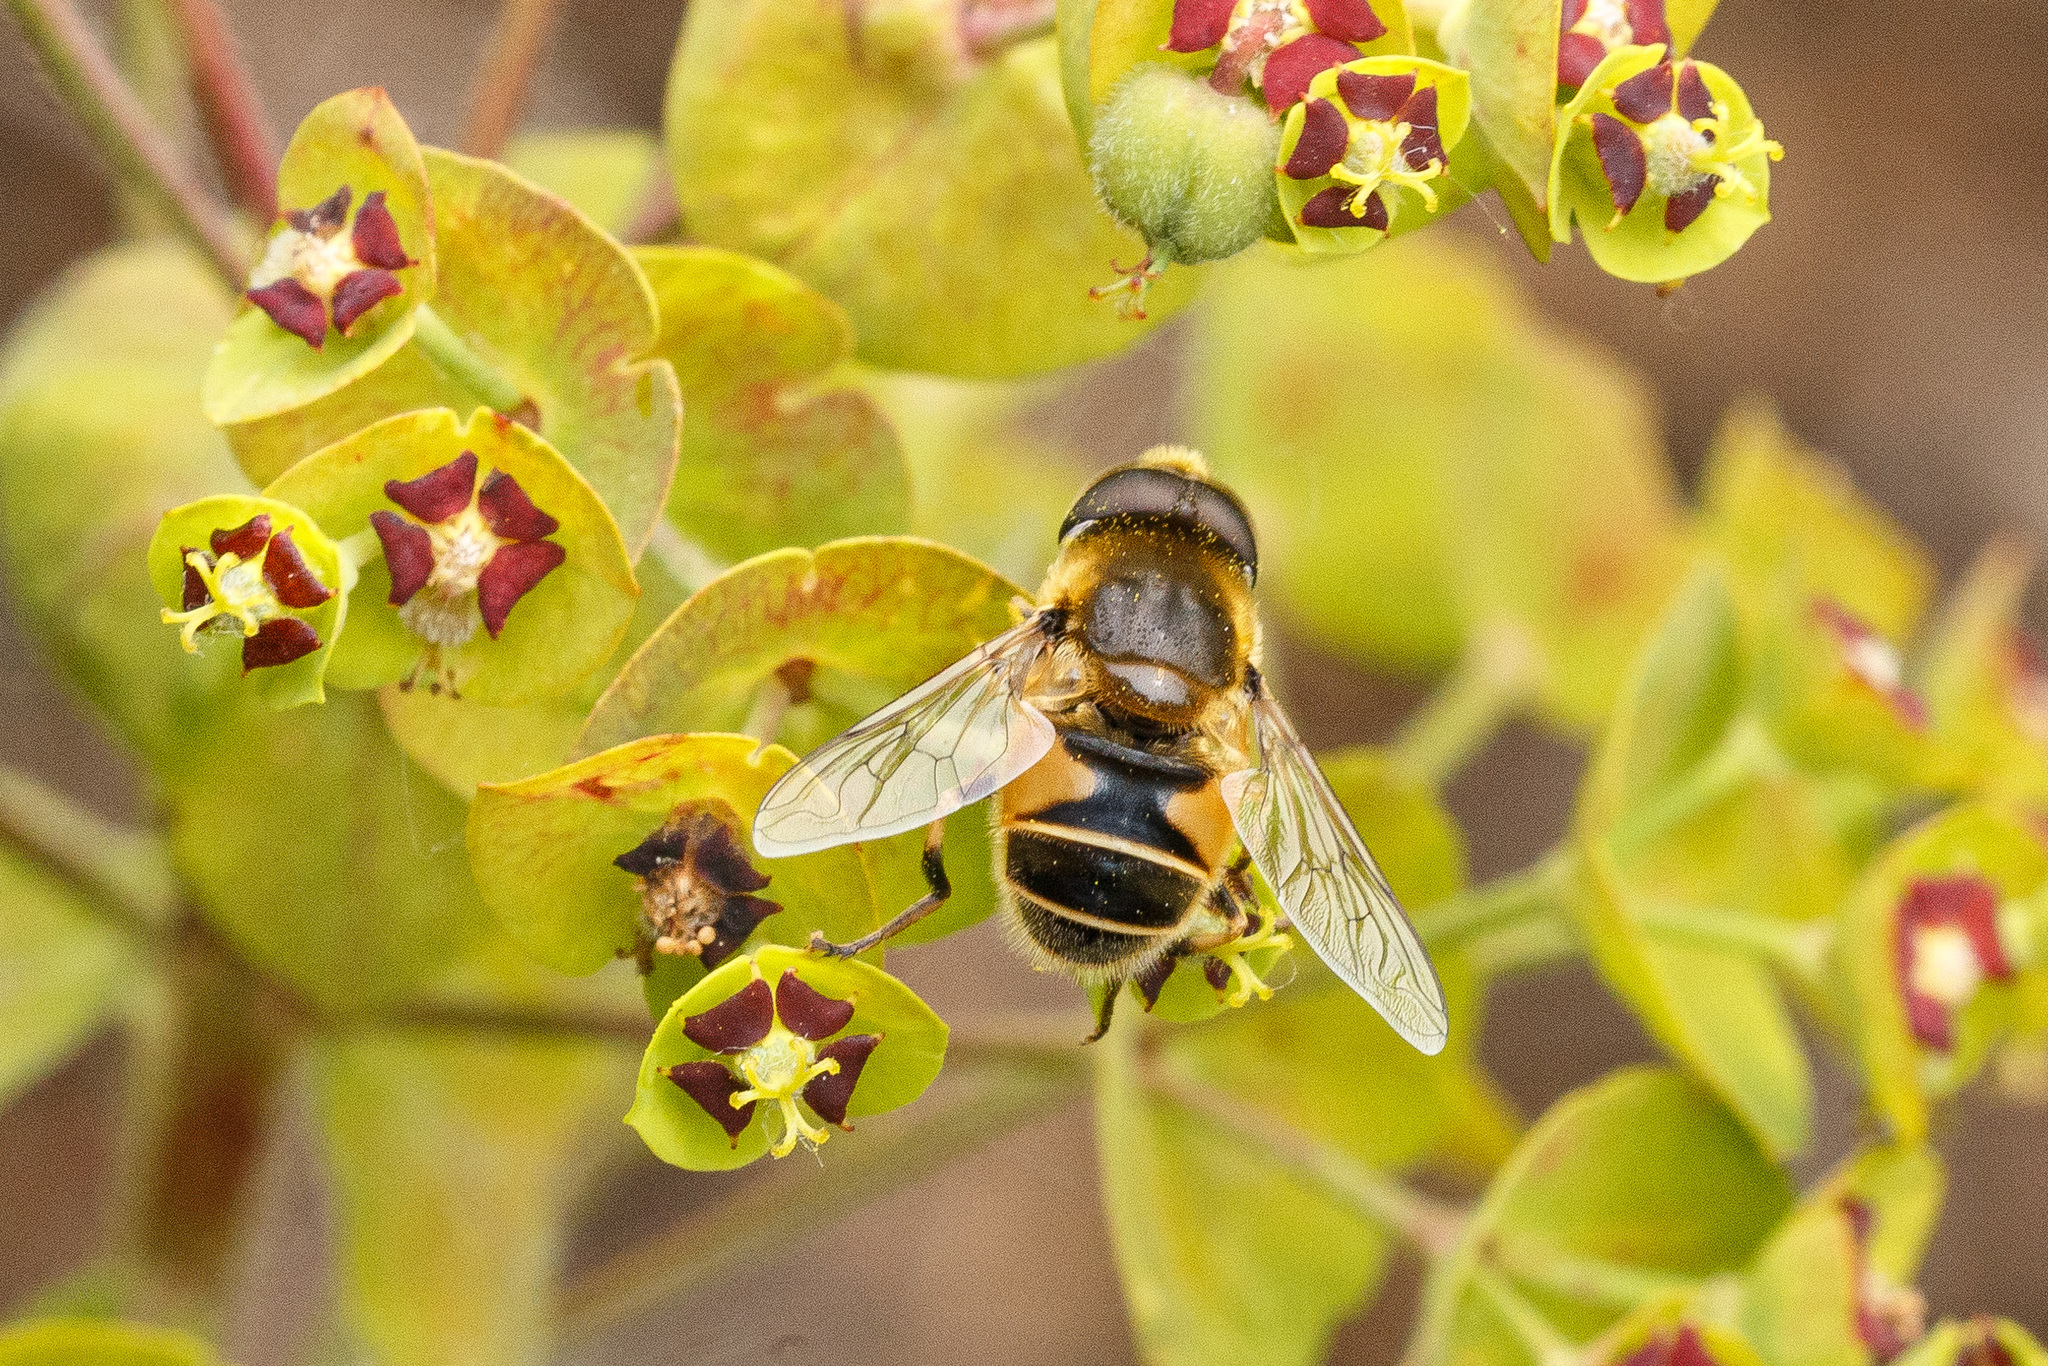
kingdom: Animalia
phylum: Arthropoda
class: Insecta
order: Diptera
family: Syrphidae
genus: Eristalis
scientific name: Eristalis nemorum
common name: Orange-spined drone fly
